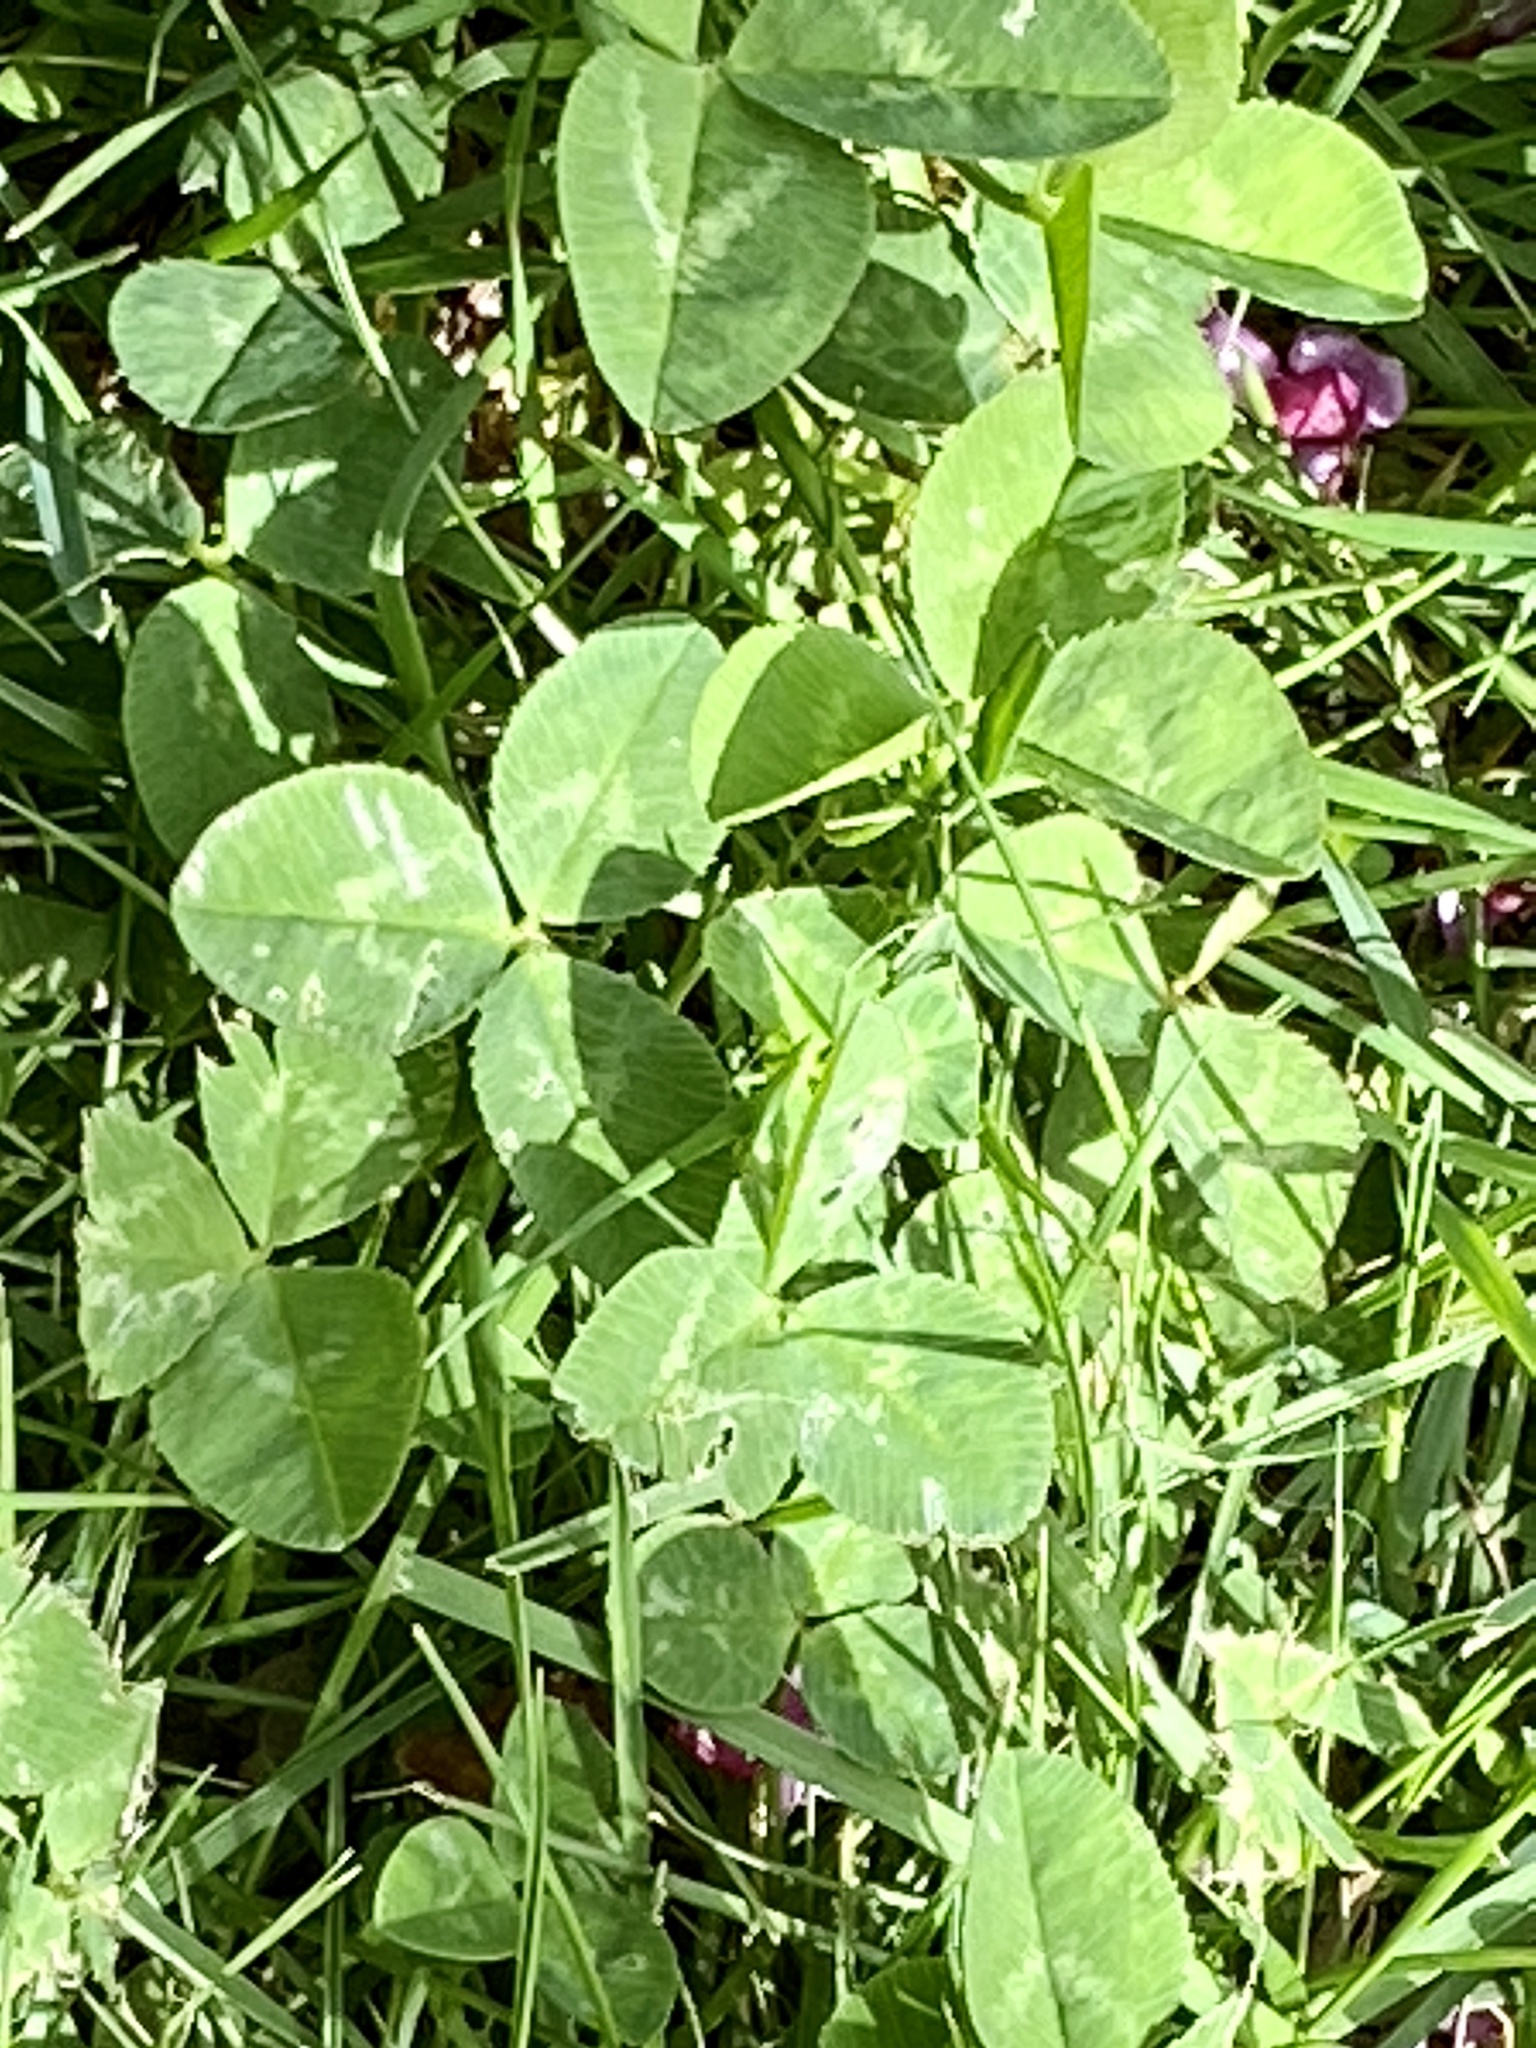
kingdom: Plantae
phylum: Tracheophyta
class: Magnoliopsida
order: Fabales
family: Fabaceae
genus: Trifolium
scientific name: Trifolium repens
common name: White clover
